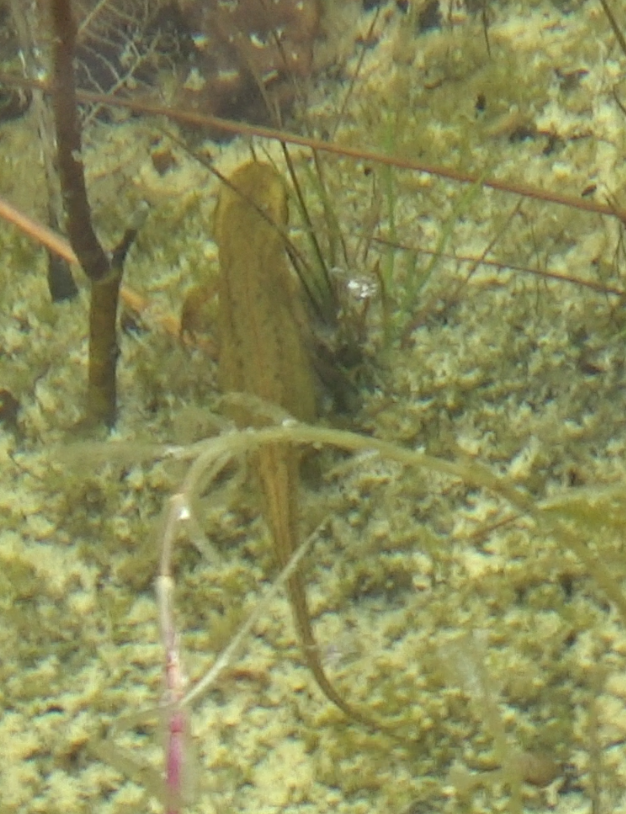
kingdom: Animalia
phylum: Chordata
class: Amphibia
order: Caudata
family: Salamandridae
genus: Lissotriton
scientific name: Lissotriton
